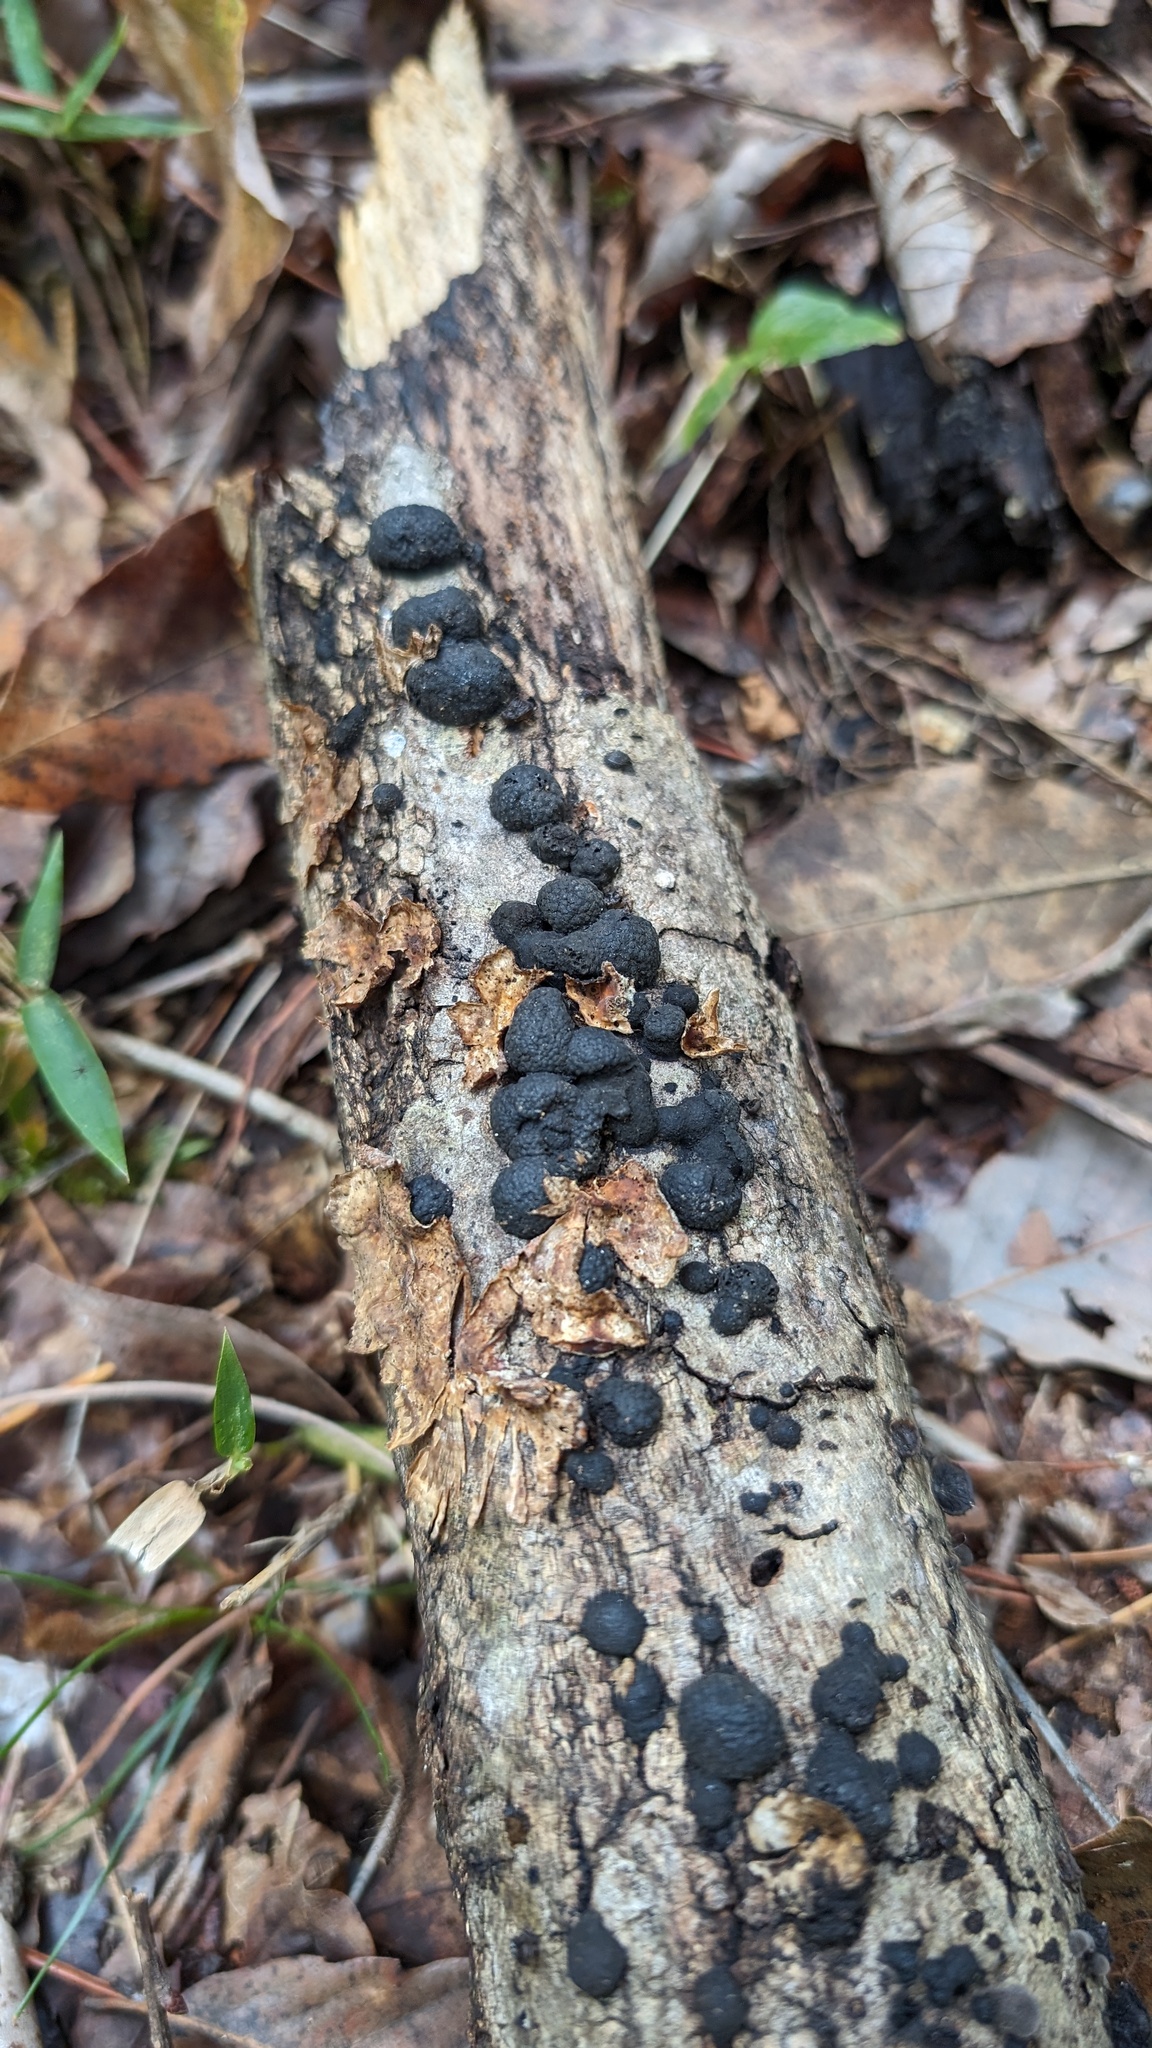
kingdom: Fungi
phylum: Ascomycota
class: Sordariomycetes
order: Xylariales
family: Hypoxylaceae
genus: Annulohypoxylon
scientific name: Annulohypoxylon truncatum
